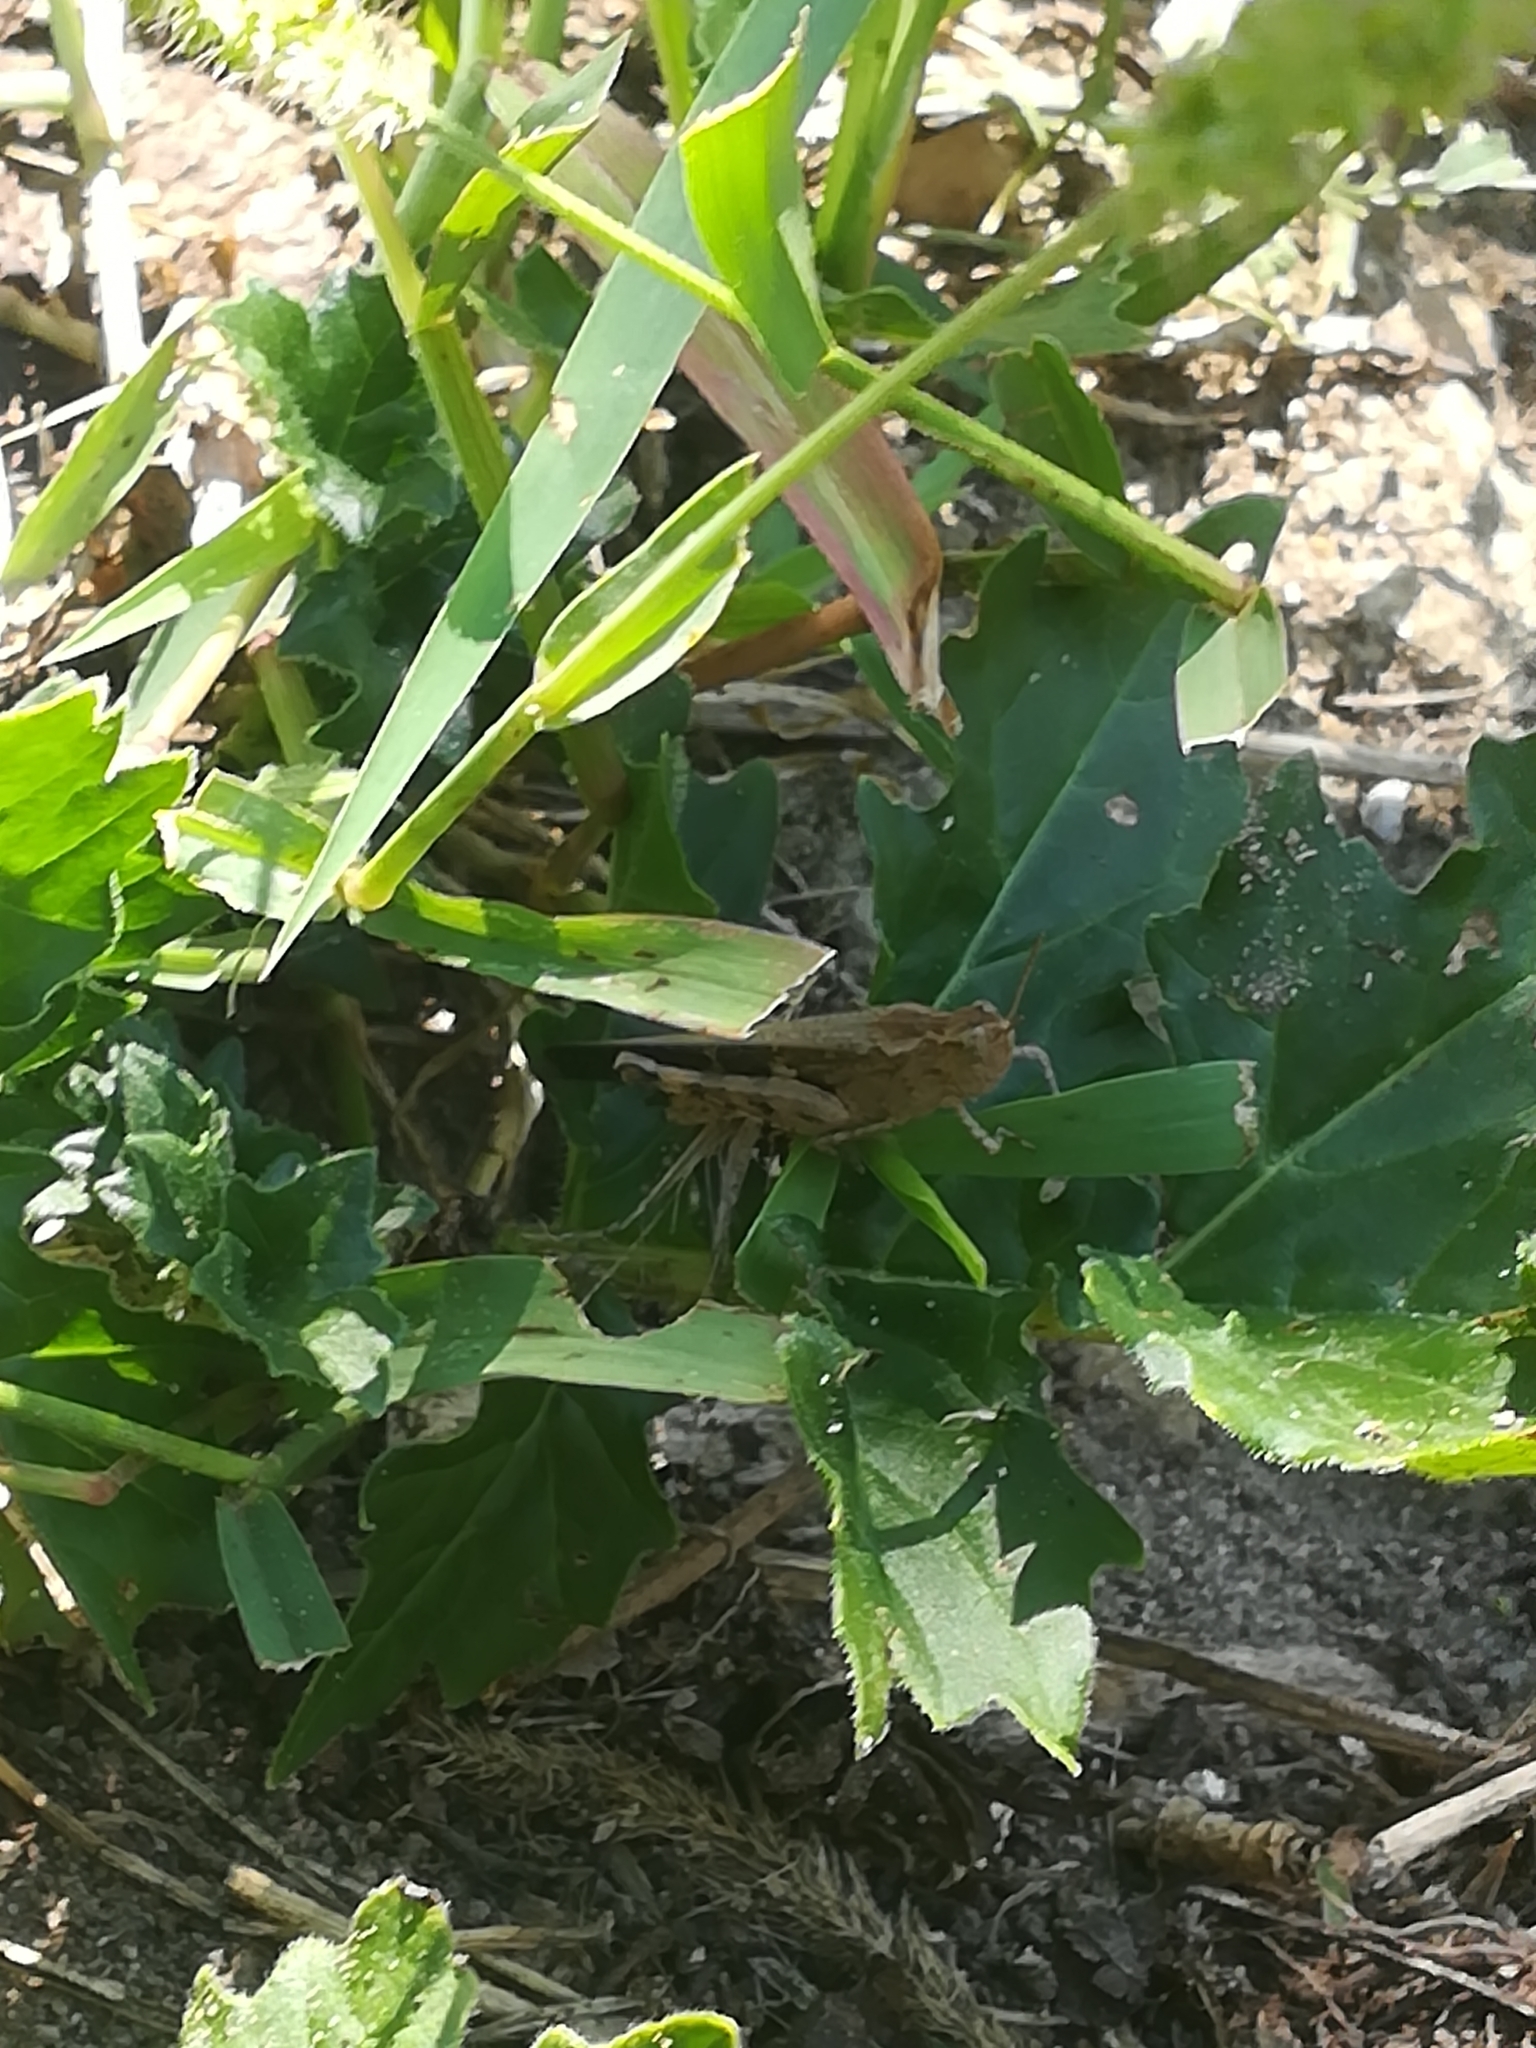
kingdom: Animalia
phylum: Arthropoda
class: Insecta
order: Orthoptera
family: Acrididae
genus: Aiolopus
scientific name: Aiolopus strepens
